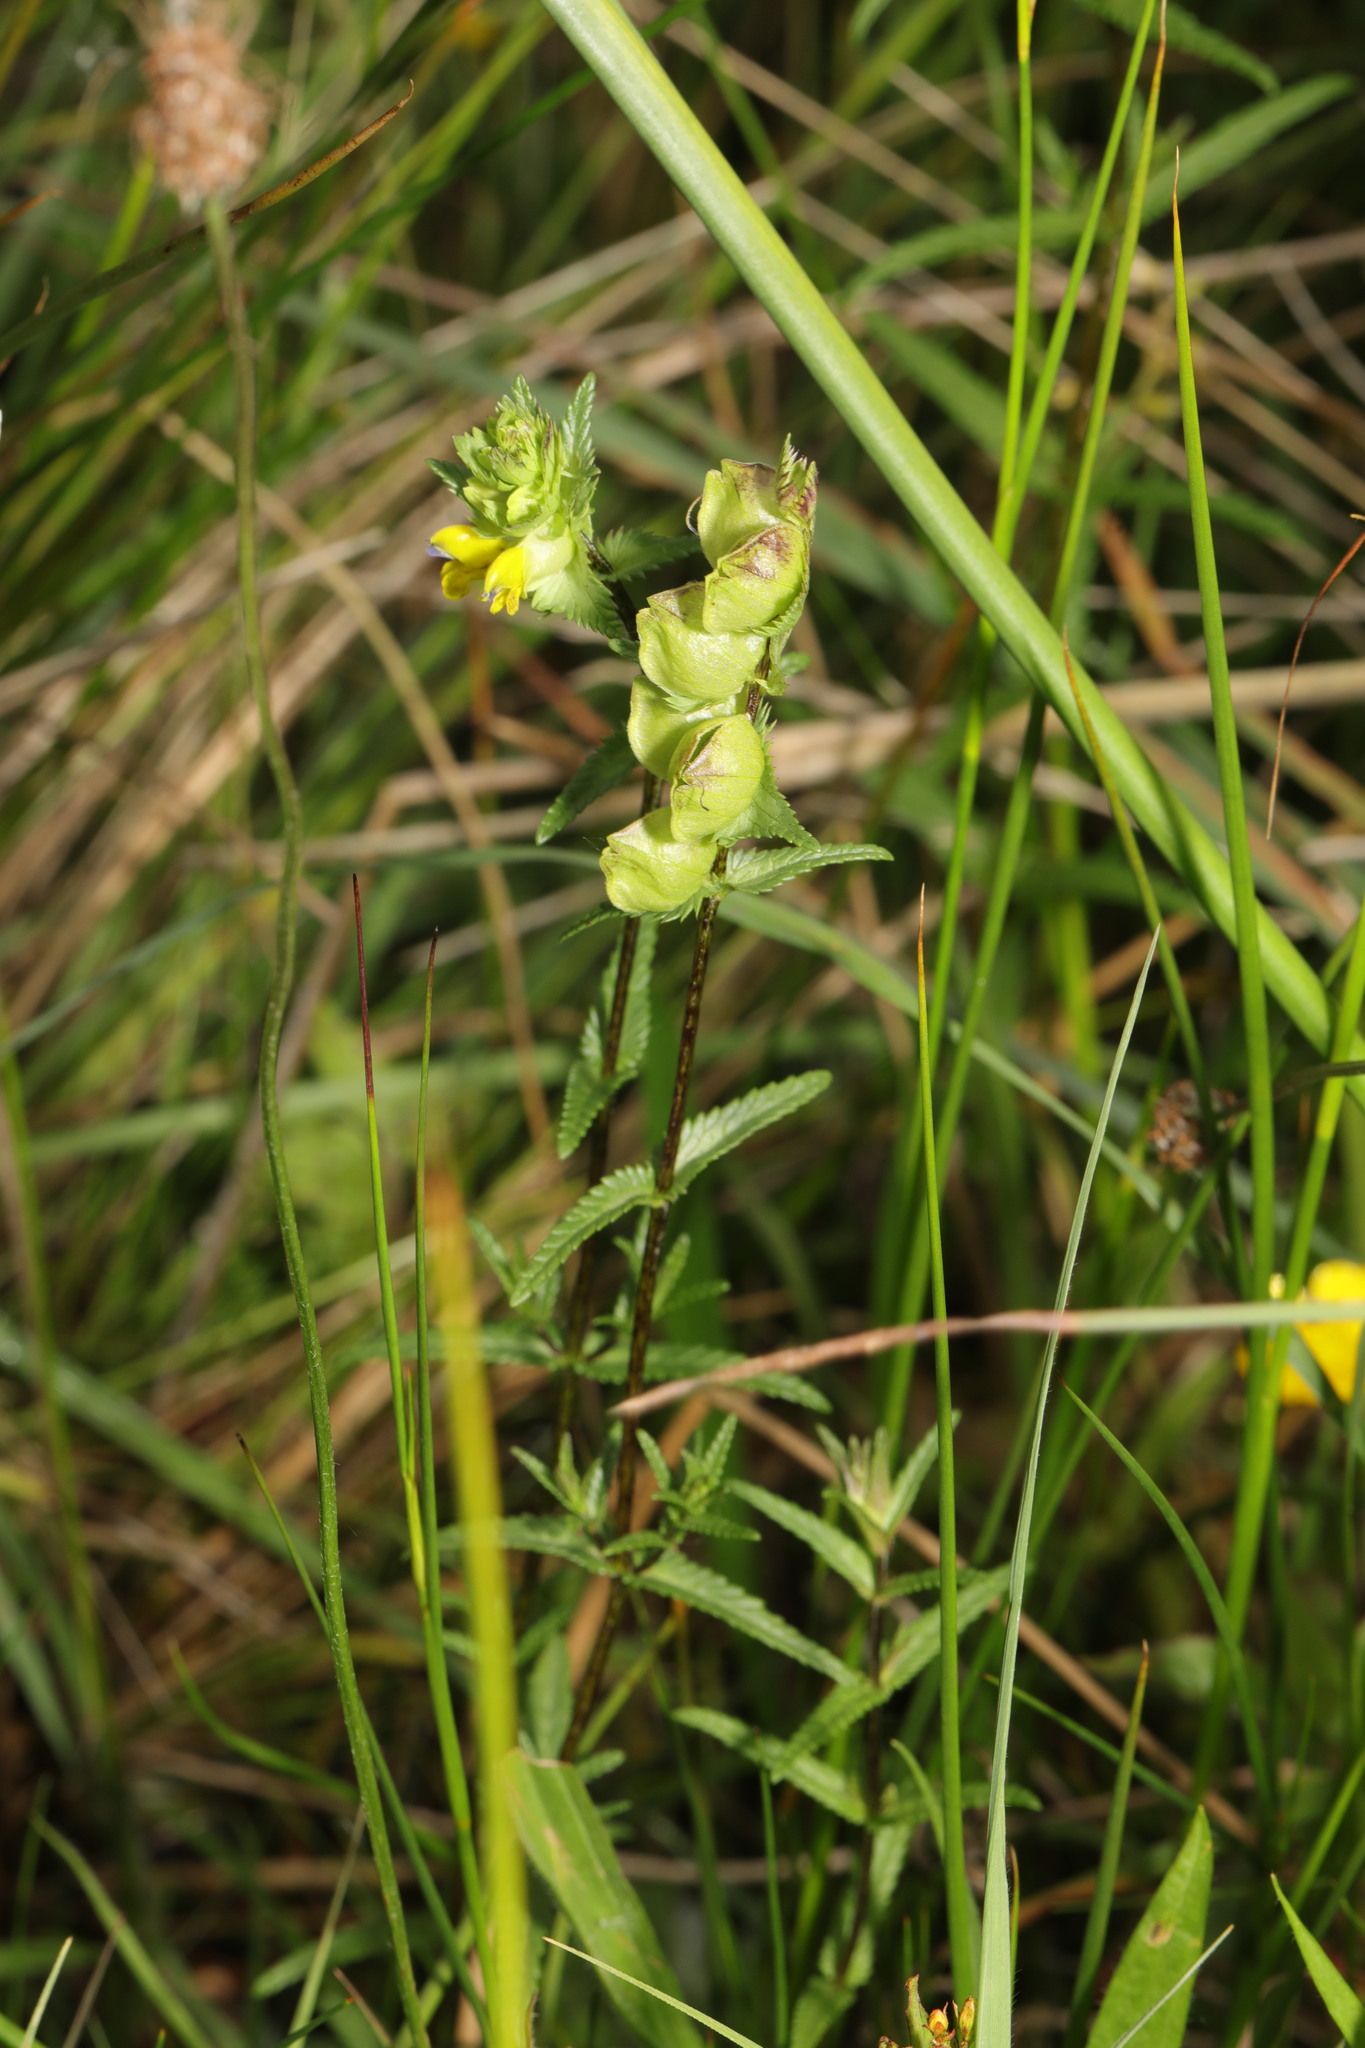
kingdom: Plantae
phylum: Tracheophyta
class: Magnoliopsida
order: Lamiales
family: Orobanchaceae
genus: Rhinanthus
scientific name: Rhinanthus minor
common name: Yellow-rattle
